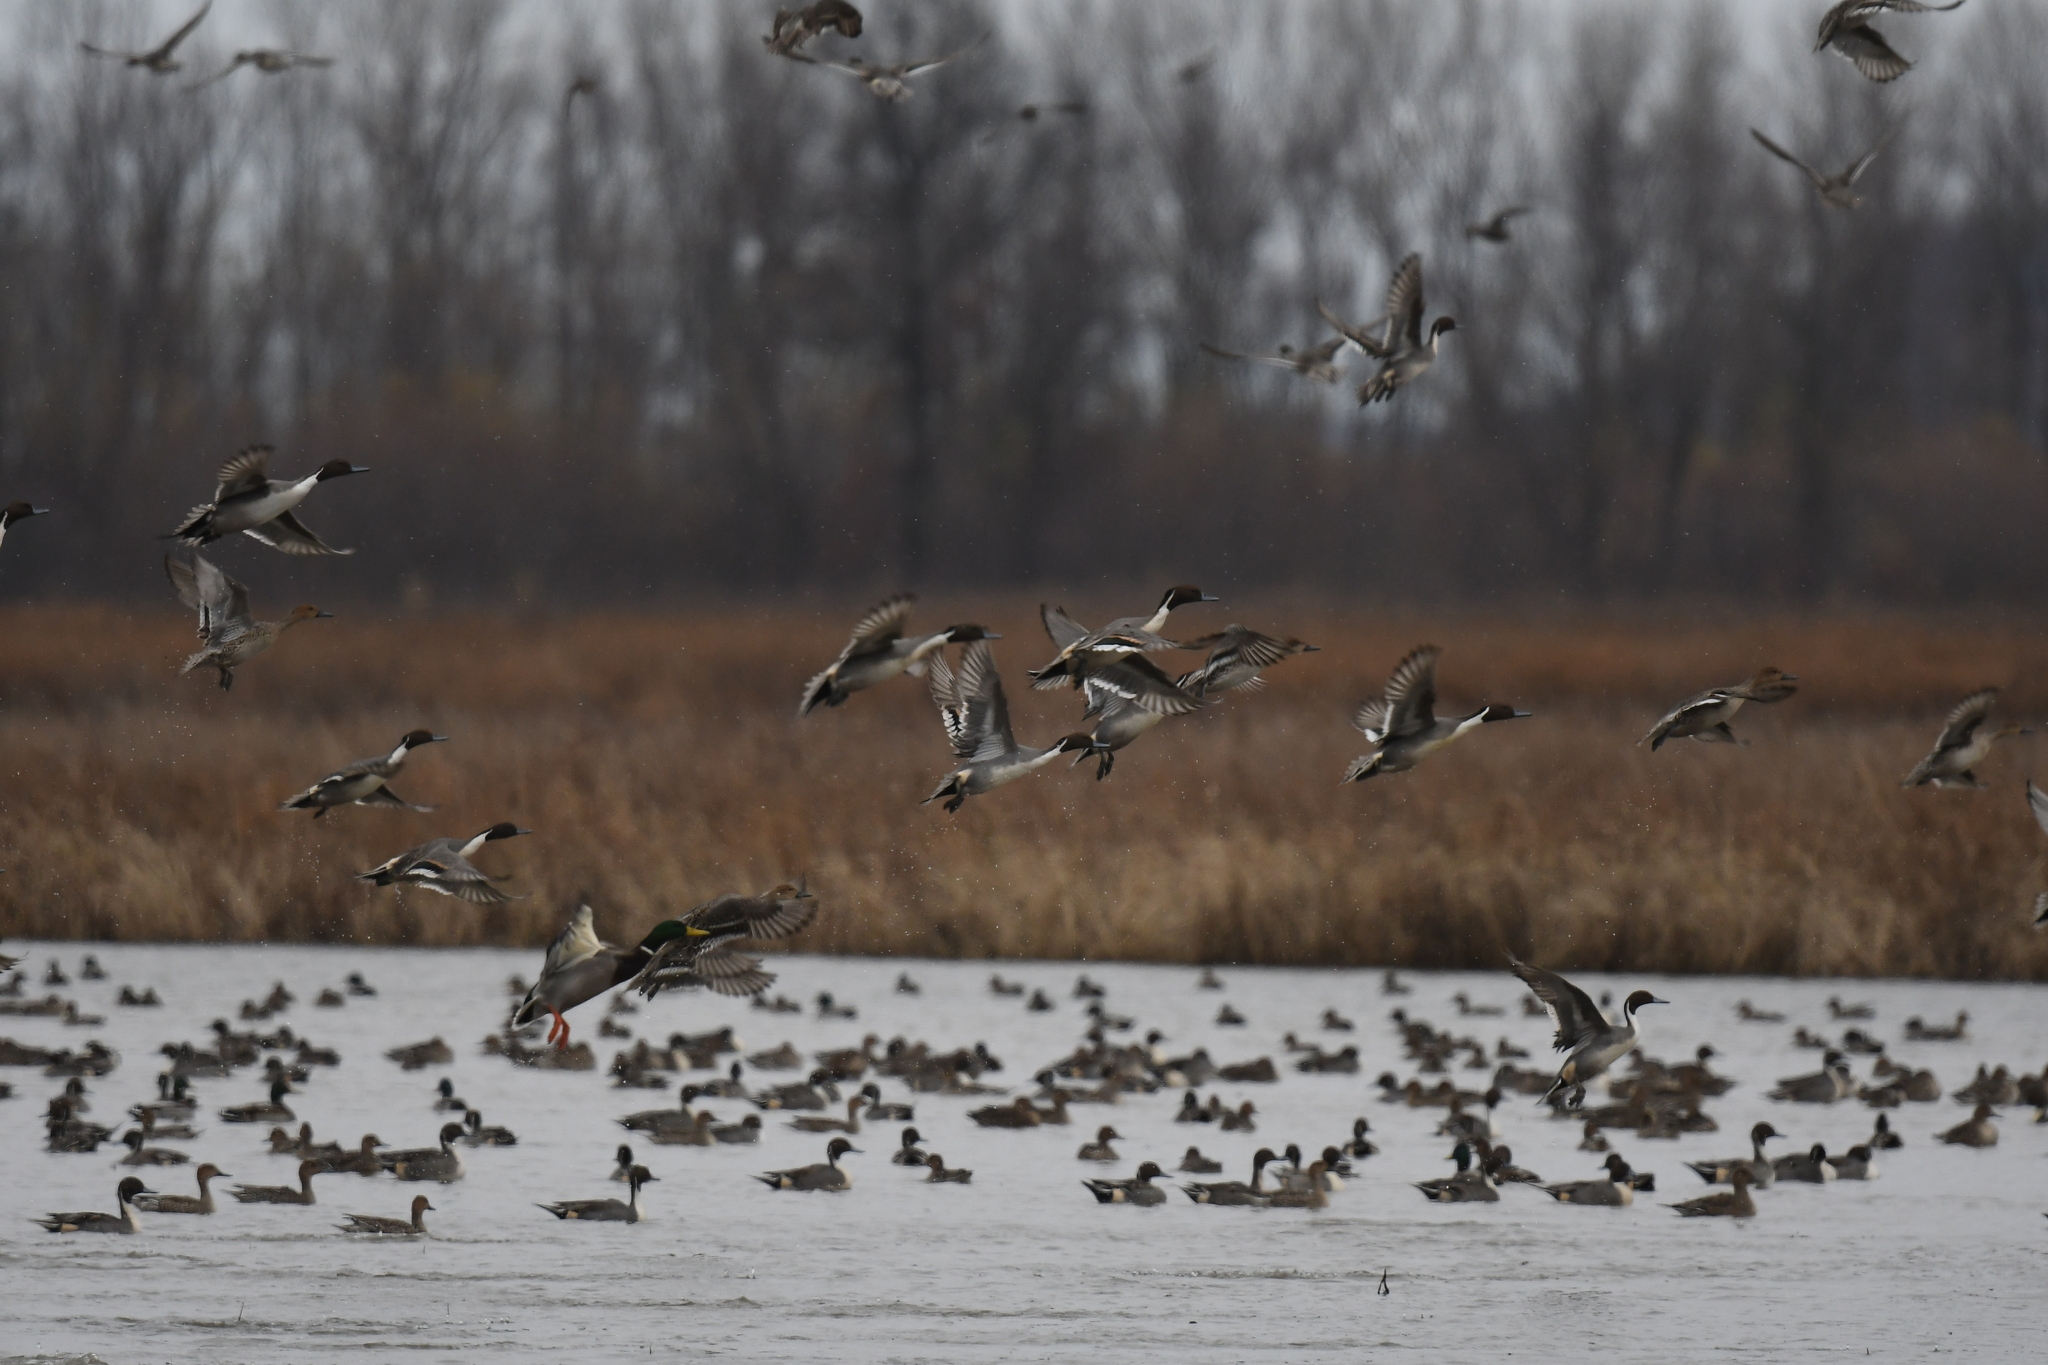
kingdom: Animalia
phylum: Chordata
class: Aves
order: Anseriformes
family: Anatidae
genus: Anas
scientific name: Anas acuta
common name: Northern pintail
